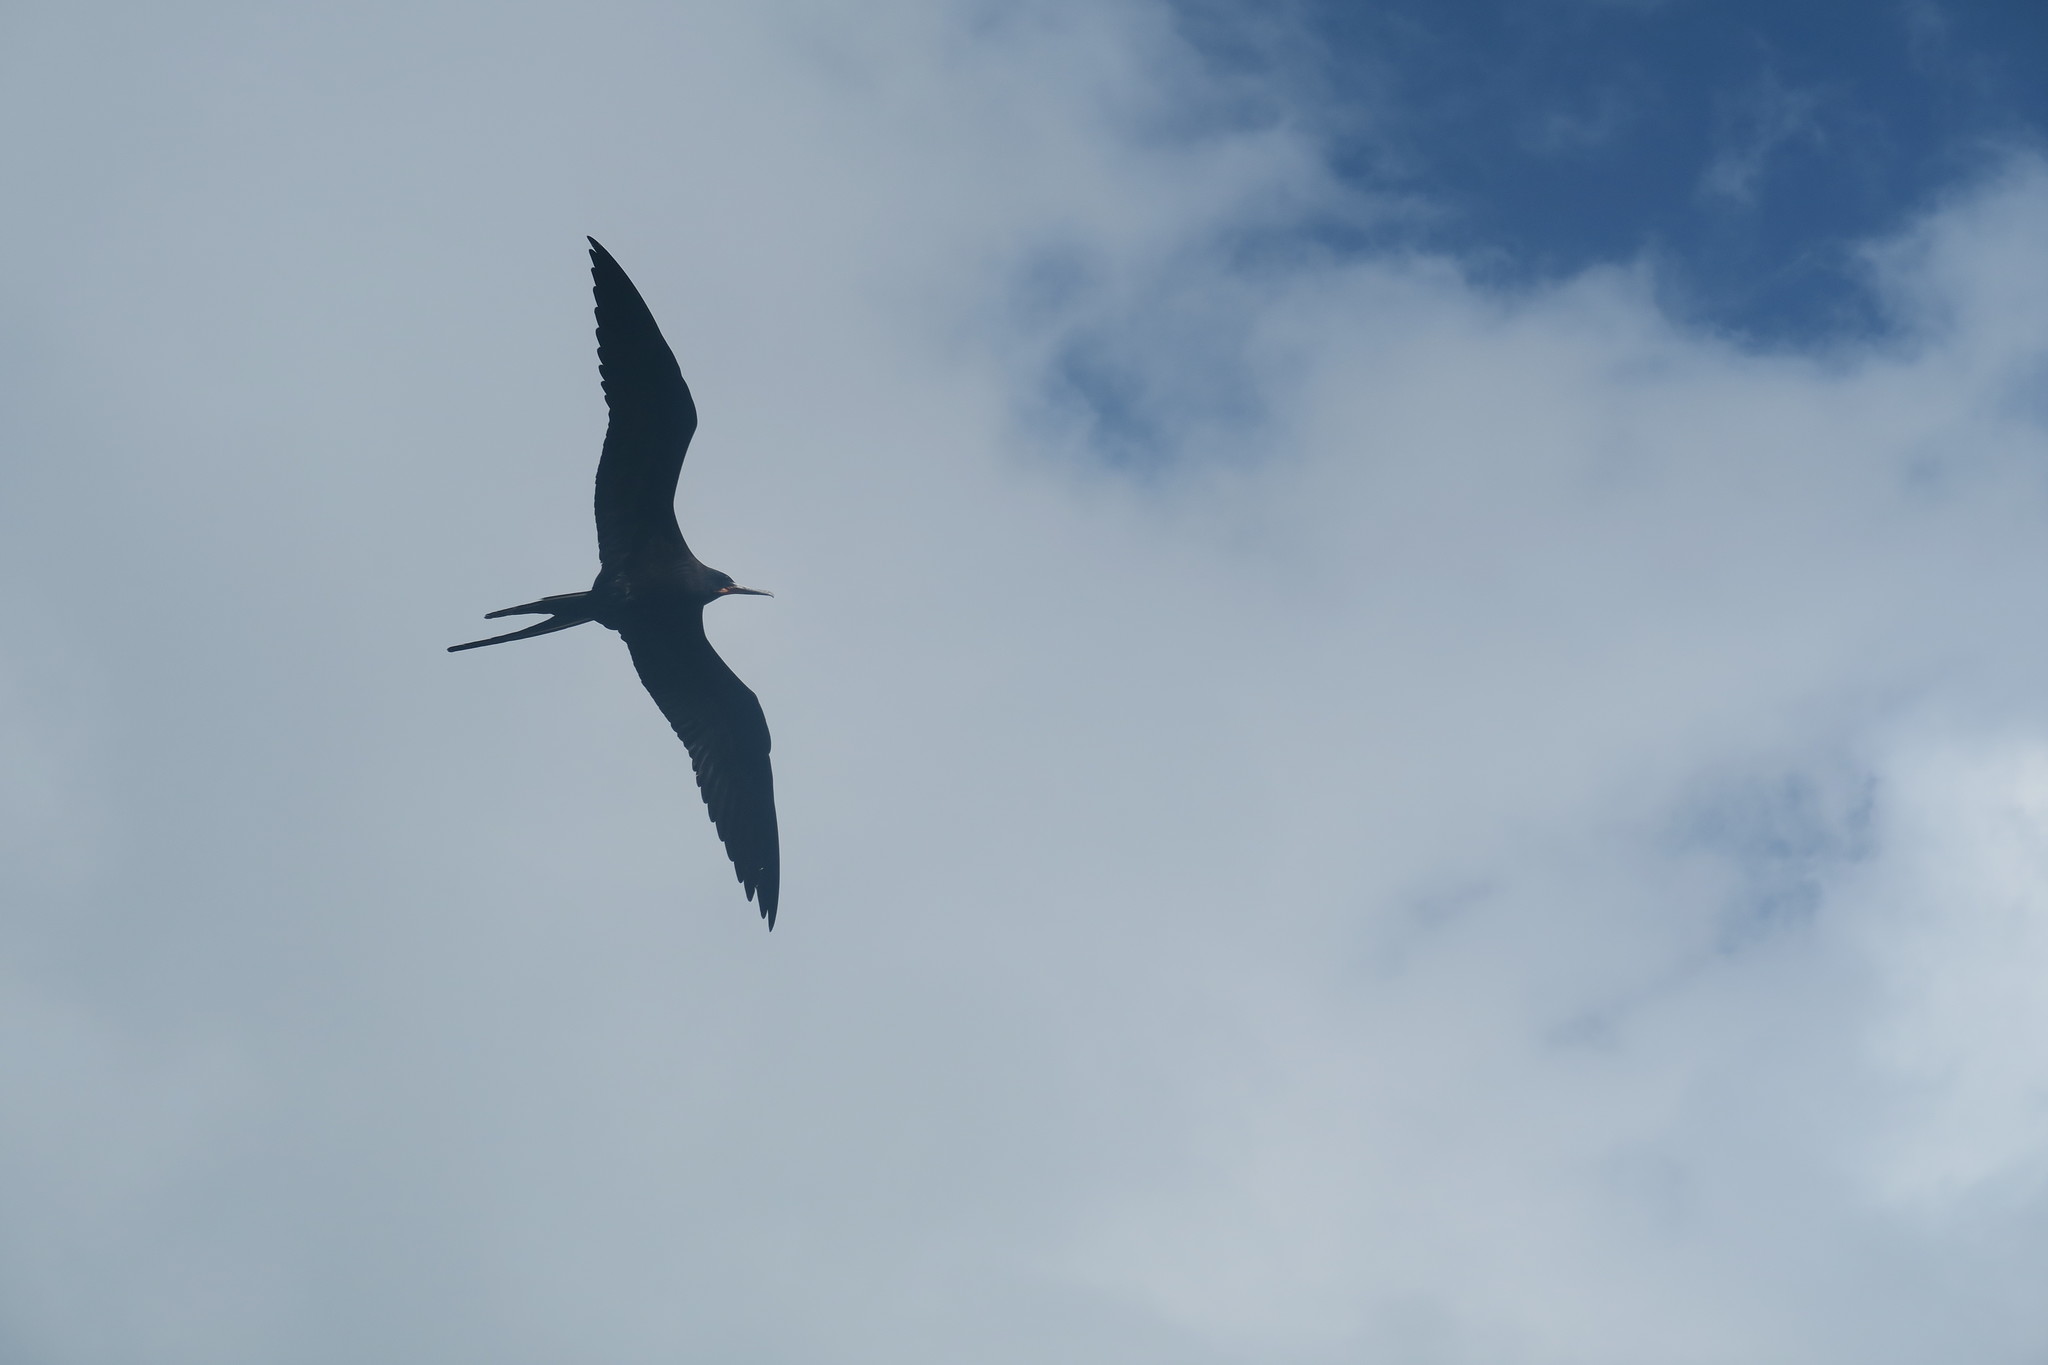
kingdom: Animalia
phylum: Chordata
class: Aves
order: Suliformes
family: Fregatidae
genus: Fregata
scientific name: Fregata magnificens
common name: Magnificent frigatebird
